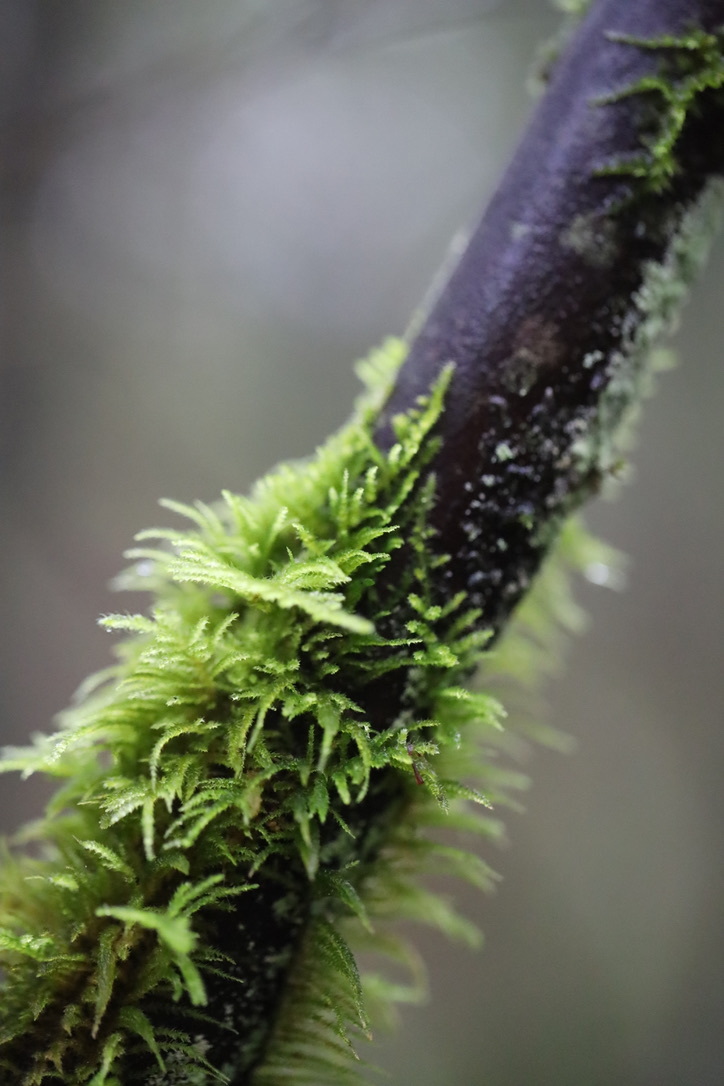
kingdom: Plantae
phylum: Bryophyta
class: Bryopsida
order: Hypnales
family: Brachytheciaceae
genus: Kindbergia
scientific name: Kindbergia oregana
